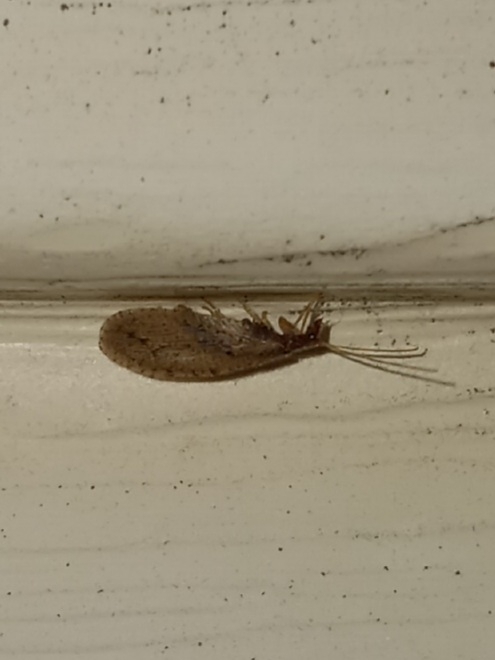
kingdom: Animalia
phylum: Arthropoda
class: Insecta
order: Neuroptera
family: Hemerobiidae
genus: Micromus
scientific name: Micromus subanticus
